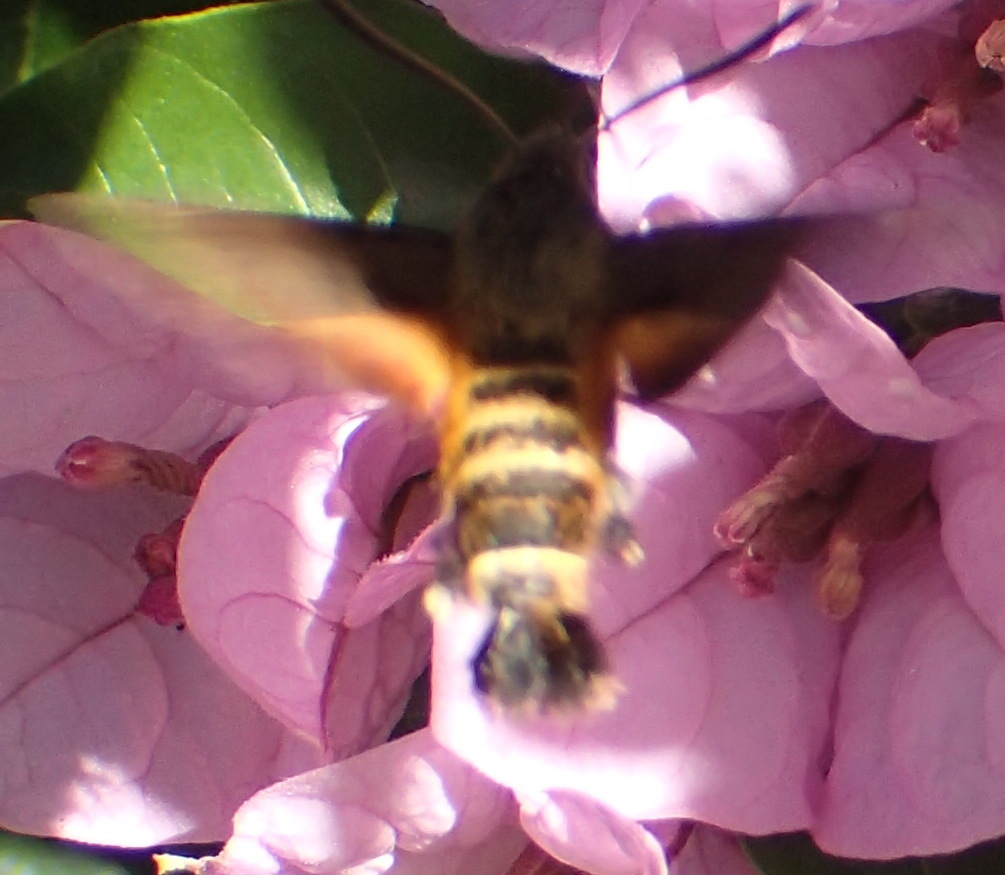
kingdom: Animalia
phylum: Arthropoda
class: Insecta
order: Lepidoptera
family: Sphingidae
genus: Macroglossum
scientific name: Macroglossum trochilus
